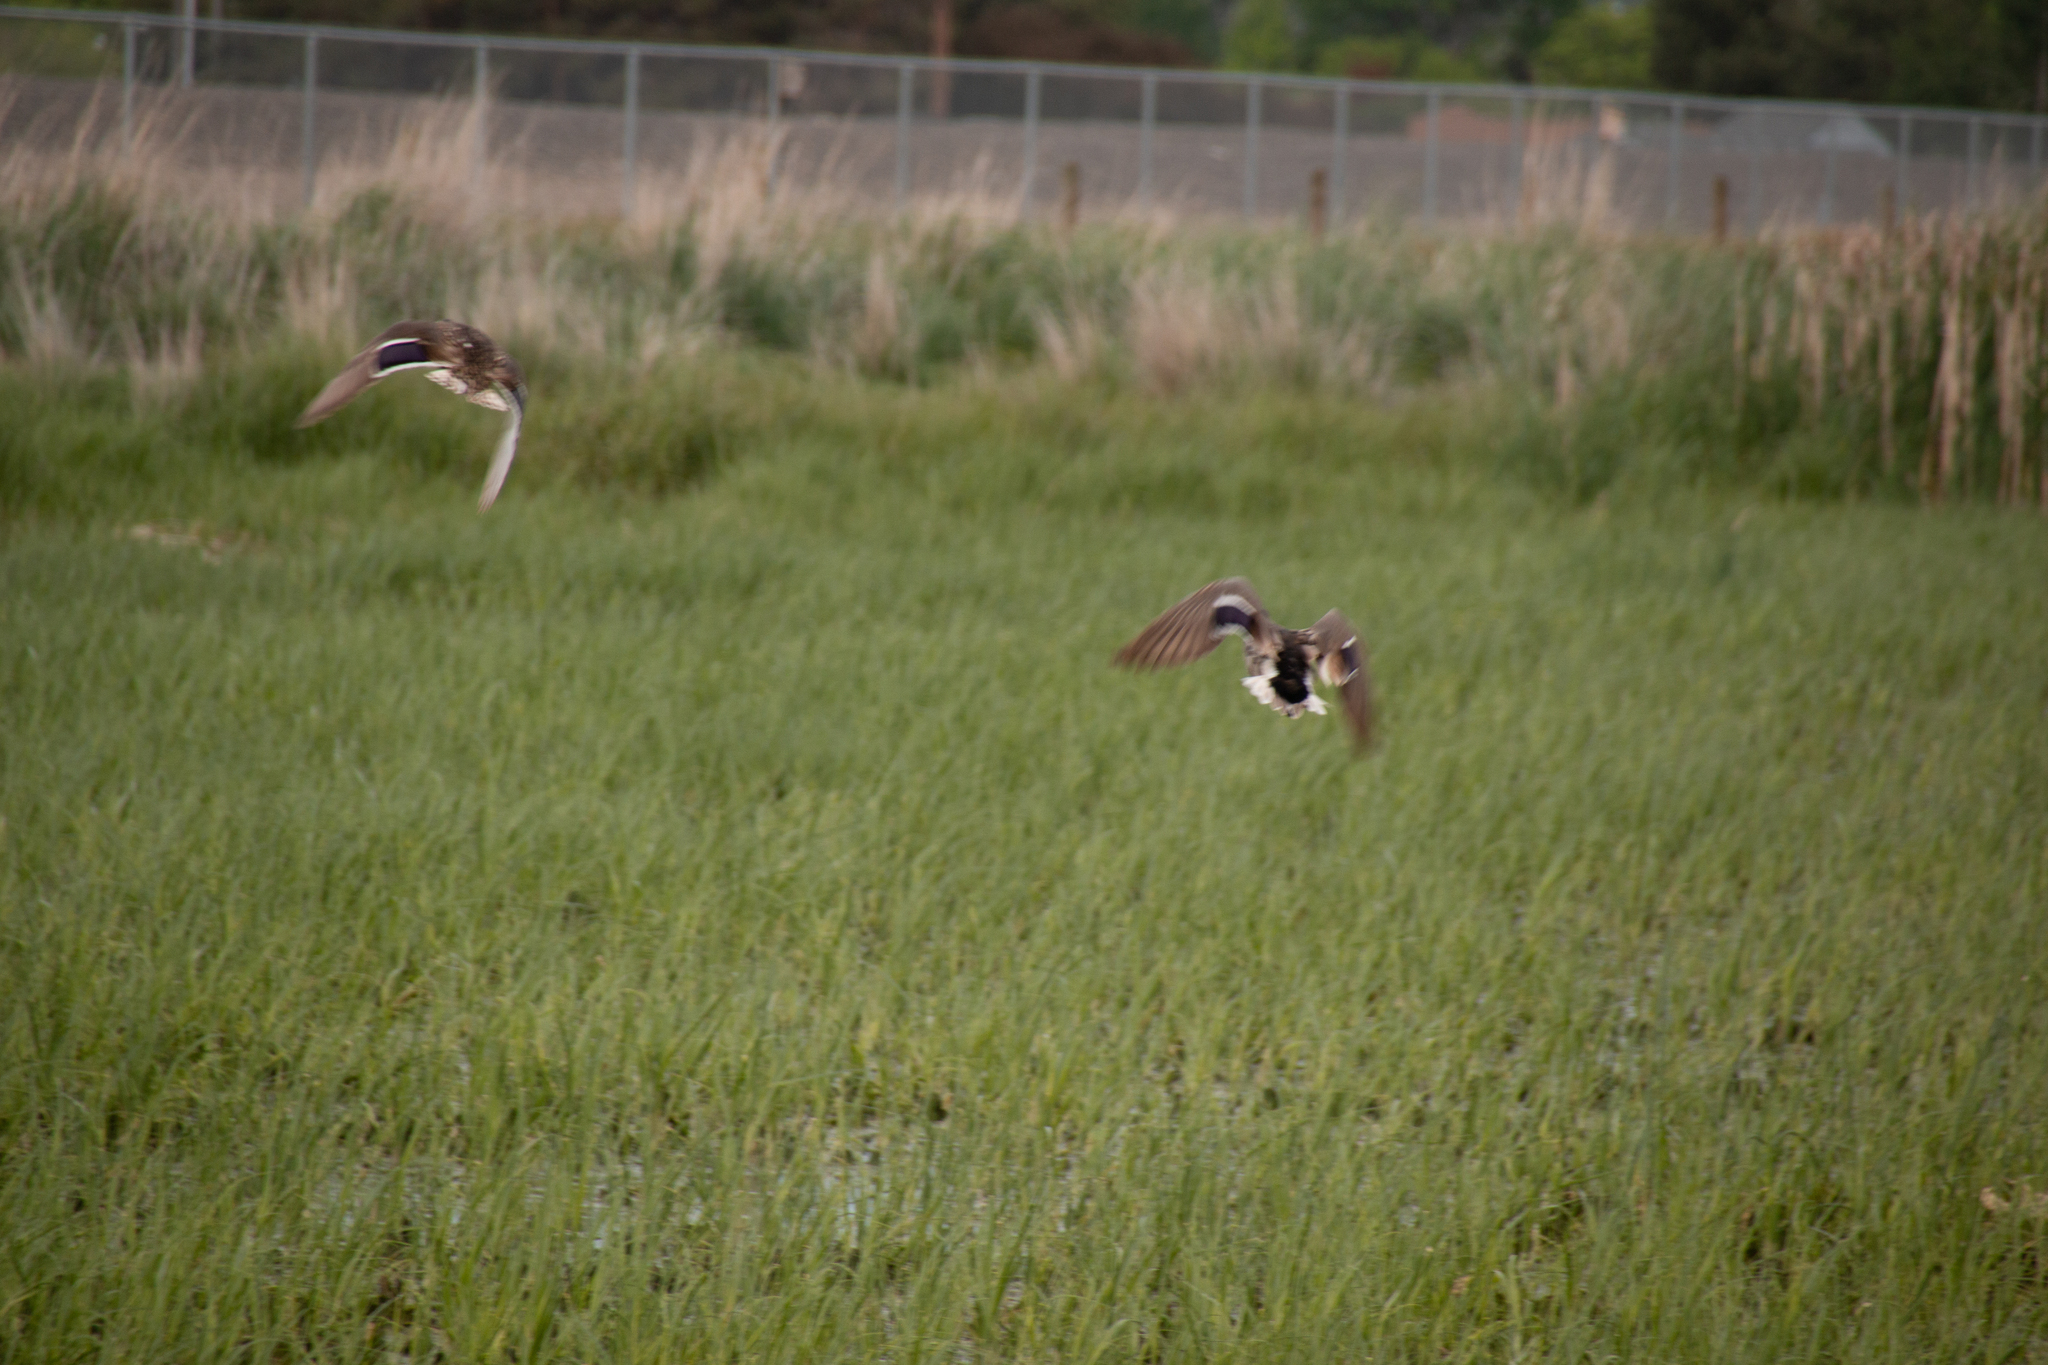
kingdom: Animalia
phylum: Chordata
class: Aves
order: Anseriformes
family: Anatidae
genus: Anas
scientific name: Anas platyrhynchos
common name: Mallard
